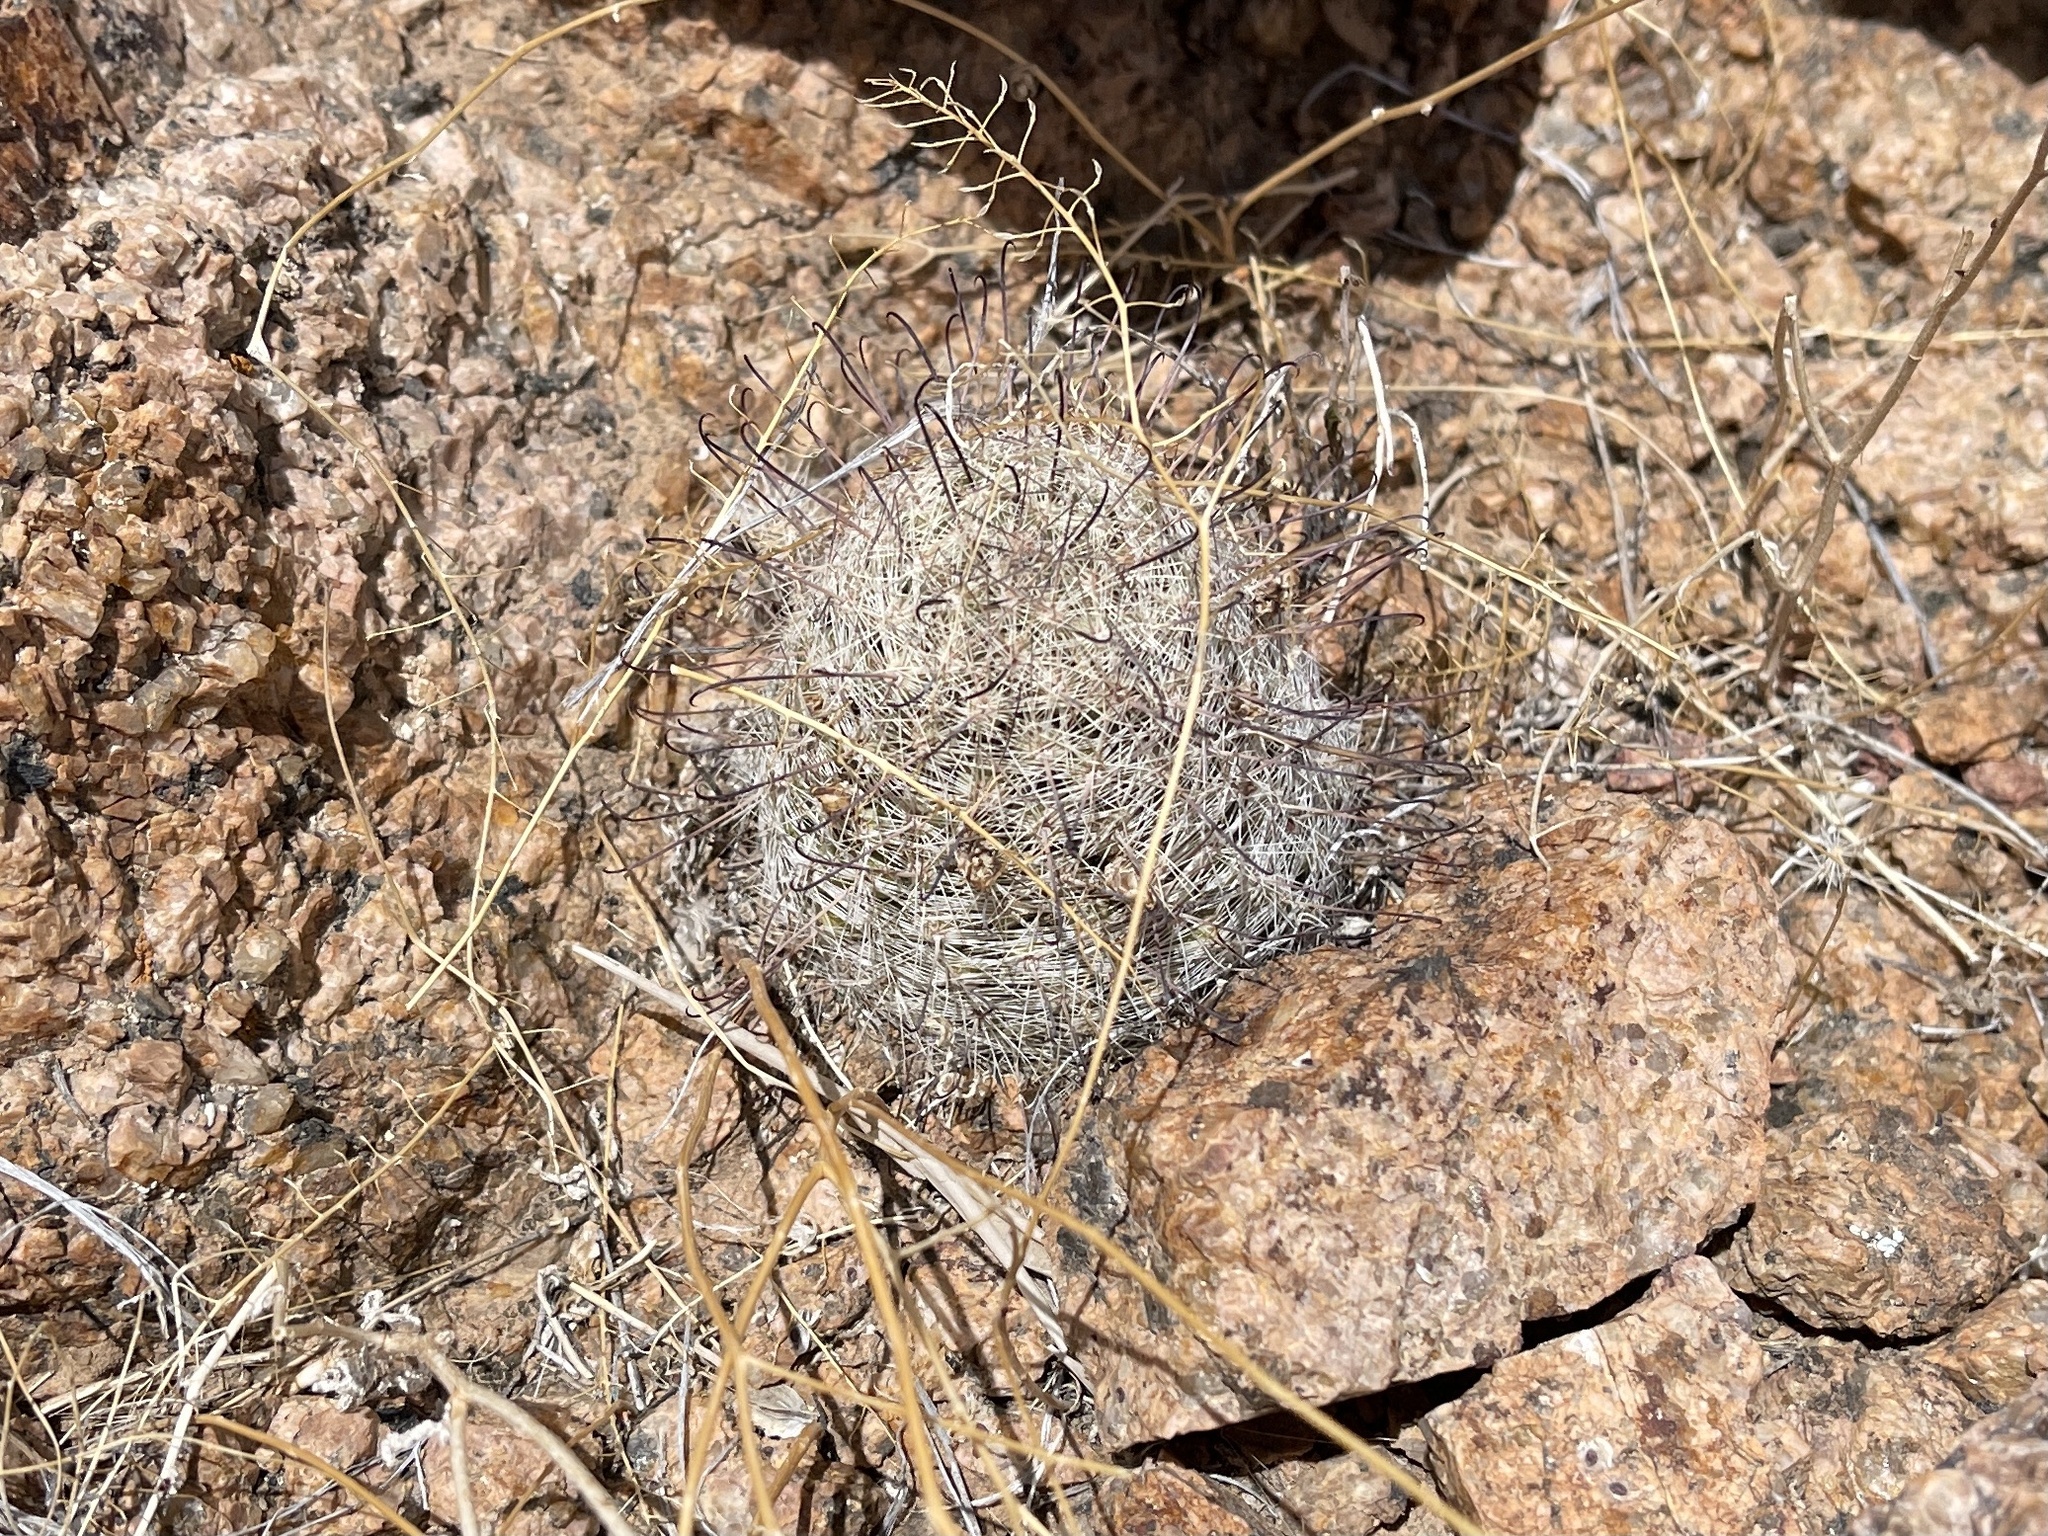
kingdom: Plantae
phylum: Tracheophyta
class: Magnoliopsida
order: Caryophyllales
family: Cactaceae
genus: Cochemiea
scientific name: Cochemiea grahamii
